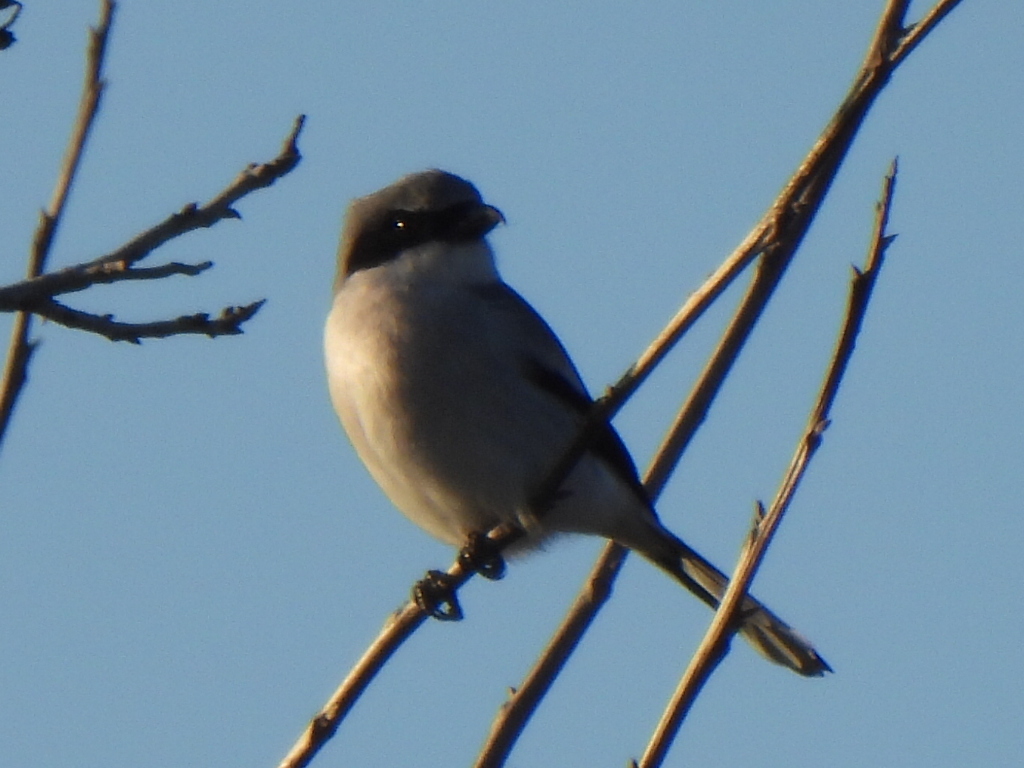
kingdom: Animalia
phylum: Chordata
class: Aves
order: Passeriformes
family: Laniidae
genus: Lanius
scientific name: Lanius ludovicianus
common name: Loggerhead shrike
